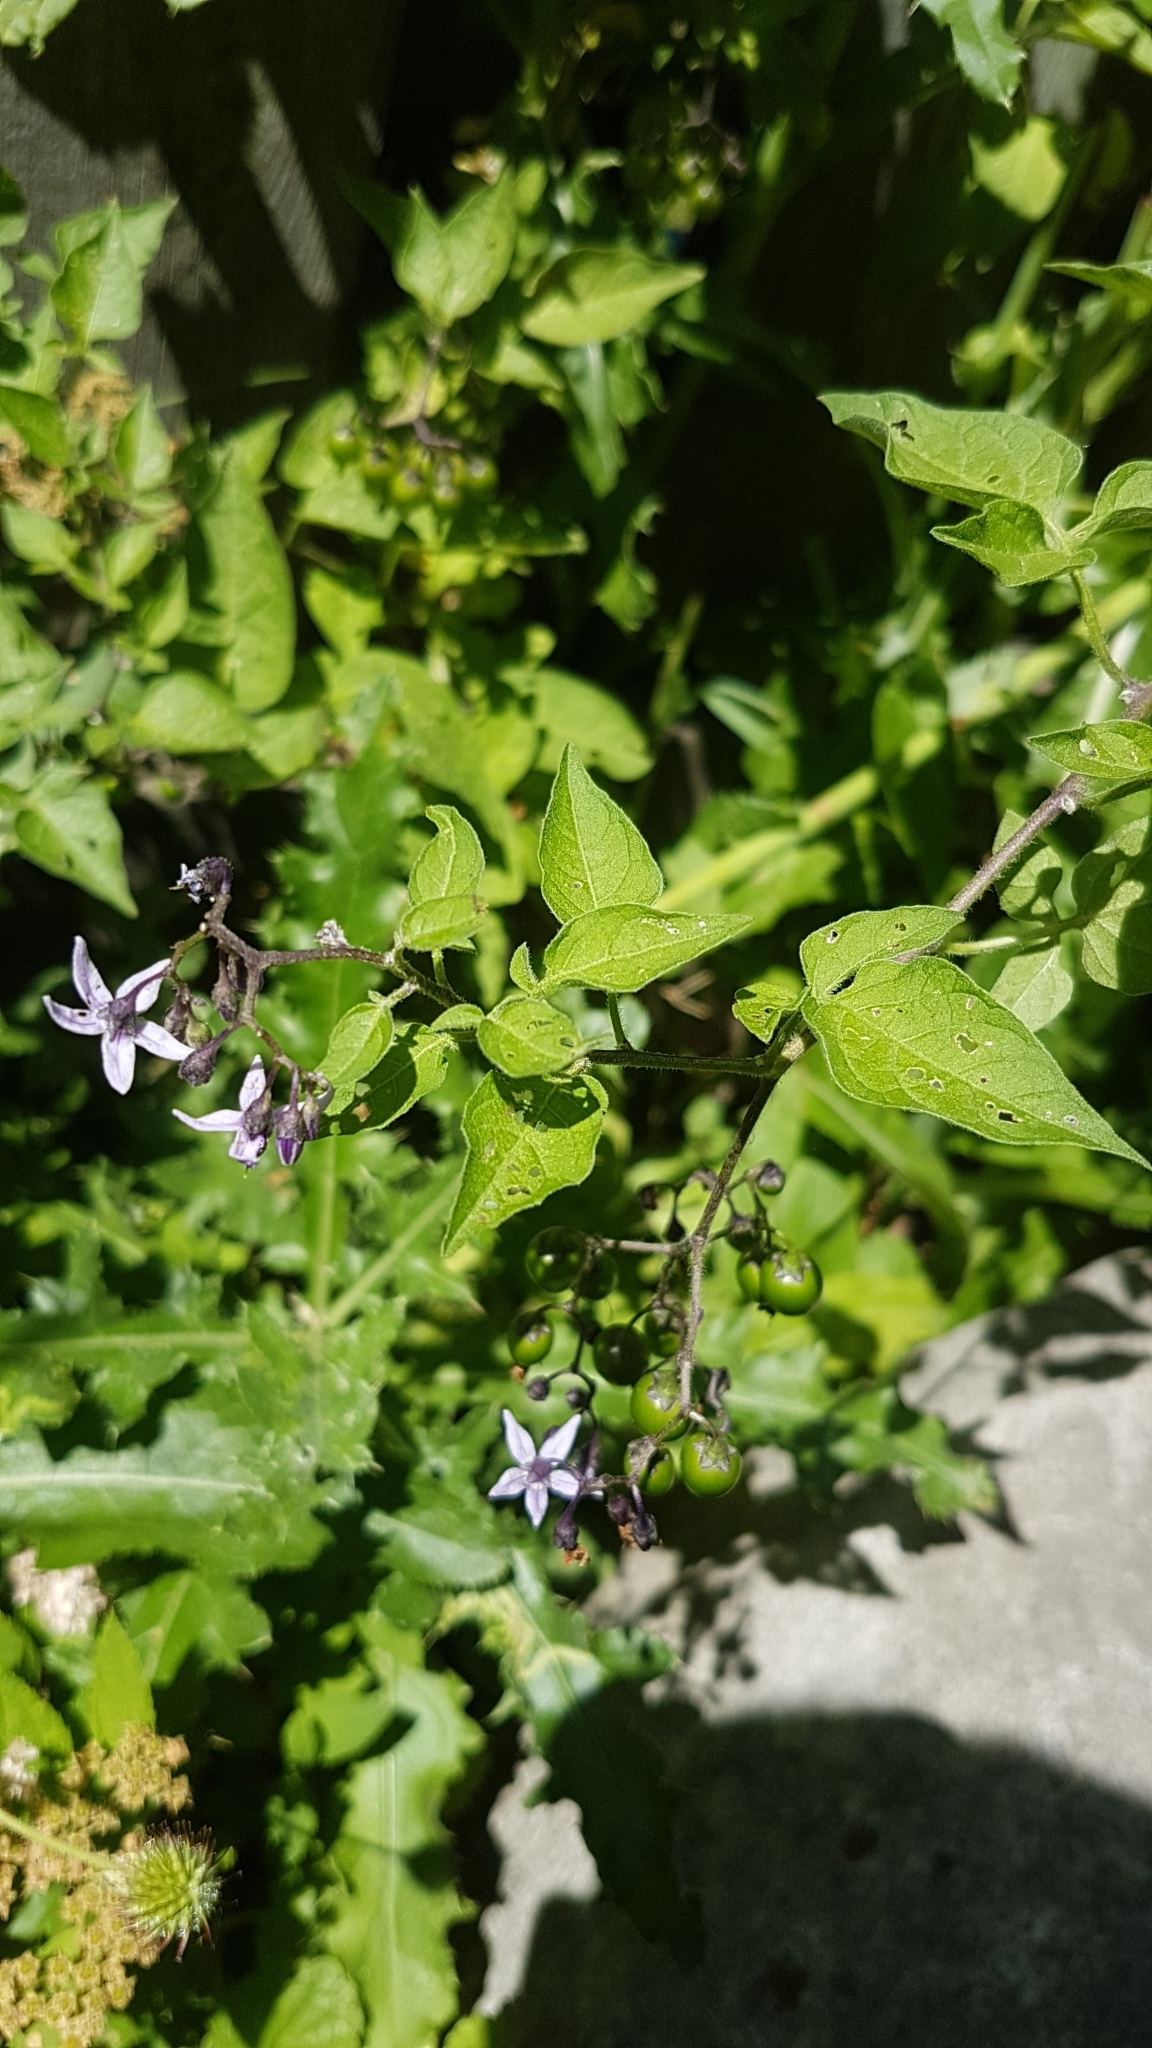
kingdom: Plantae
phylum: Tracheophyta
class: Magnoliopsida
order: Solanales
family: Solanaceae
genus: Solanum
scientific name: Solanum dulcamara
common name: Climbing nightshade
